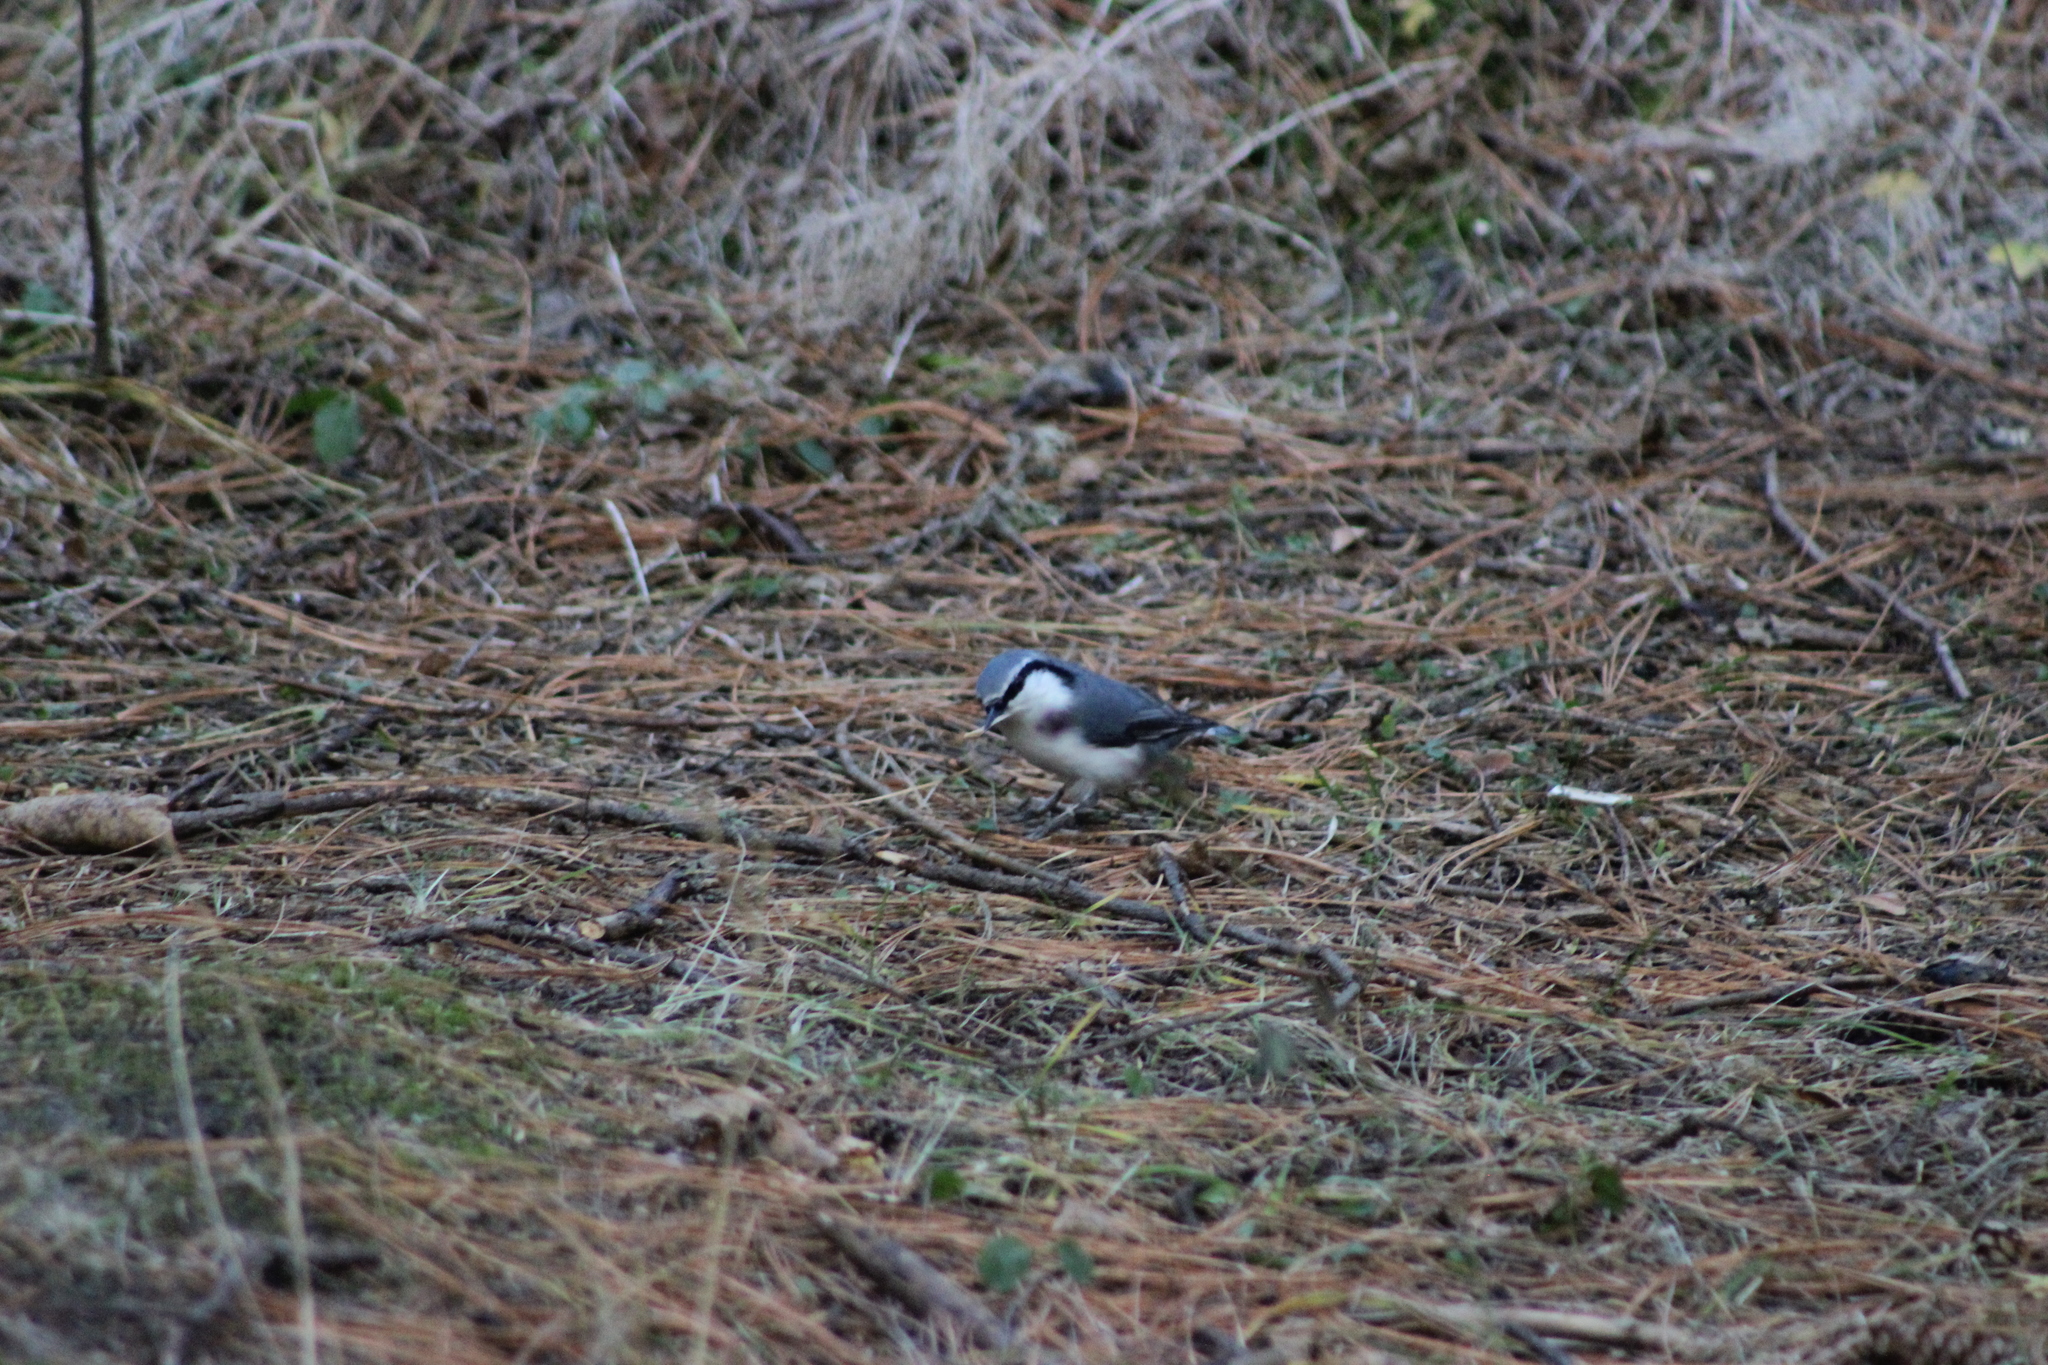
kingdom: Animalia
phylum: Chordata
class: Aves
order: Passeriformes
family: Sittidae
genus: Sitta
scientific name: Sitta europaea
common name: Eurasian nuthatch
